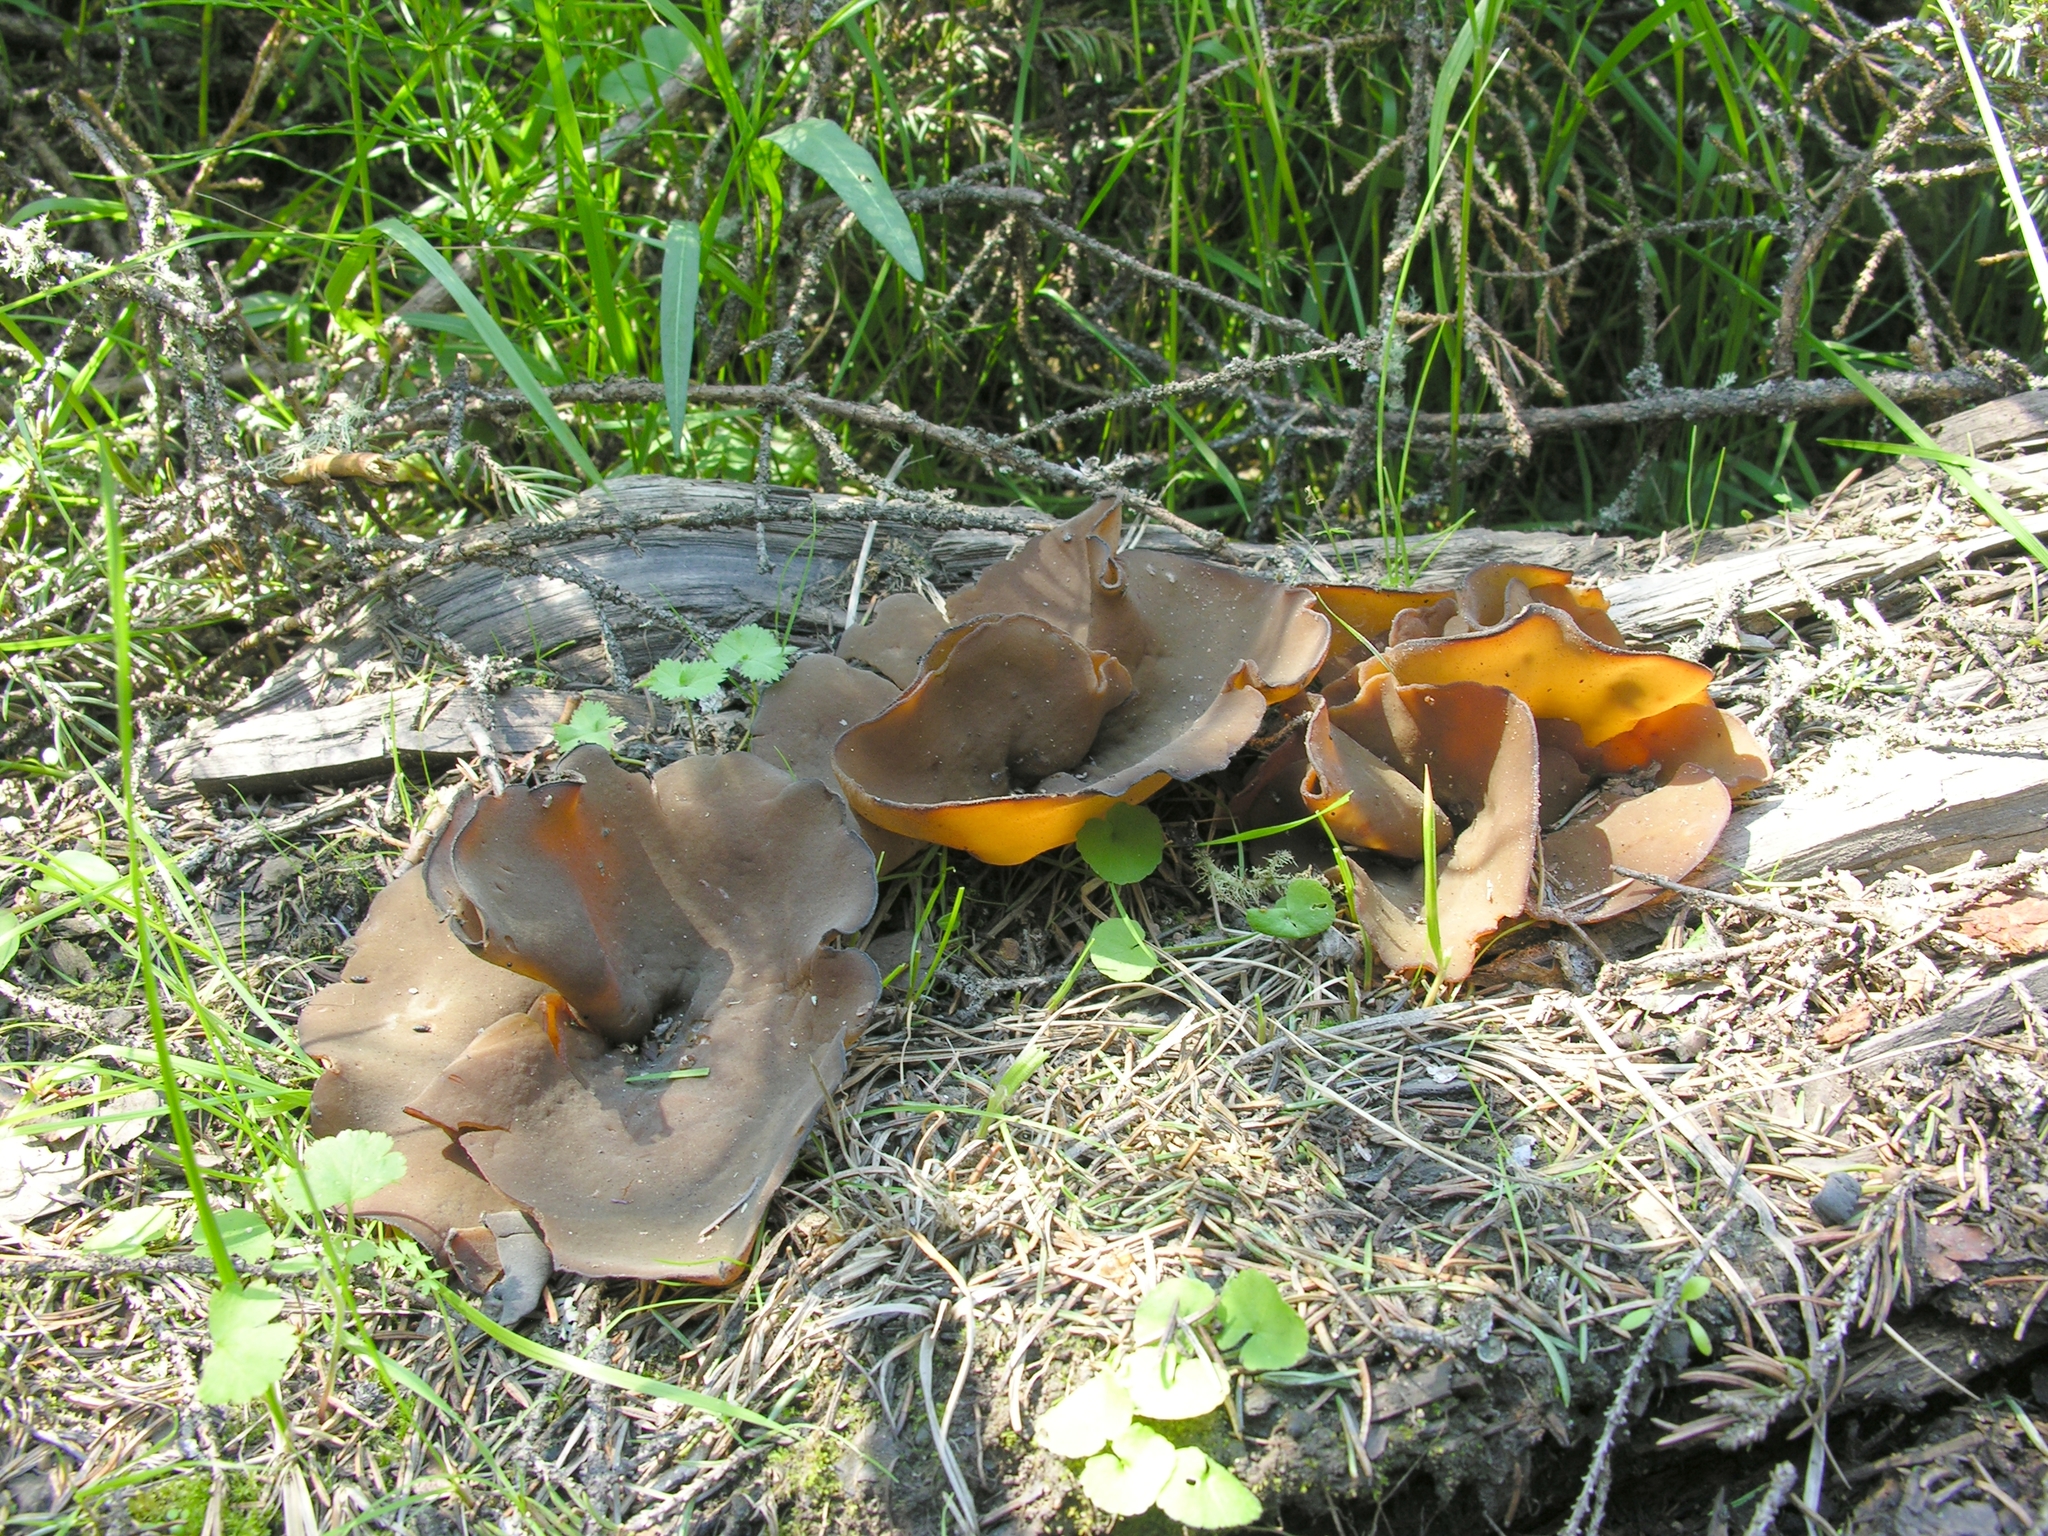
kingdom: Fungi
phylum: Ascomycota
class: Pezizomycetes
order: Pezizales
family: Pezizaceae
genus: Phylloscypha
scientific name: Phylloscypha phyllogena
